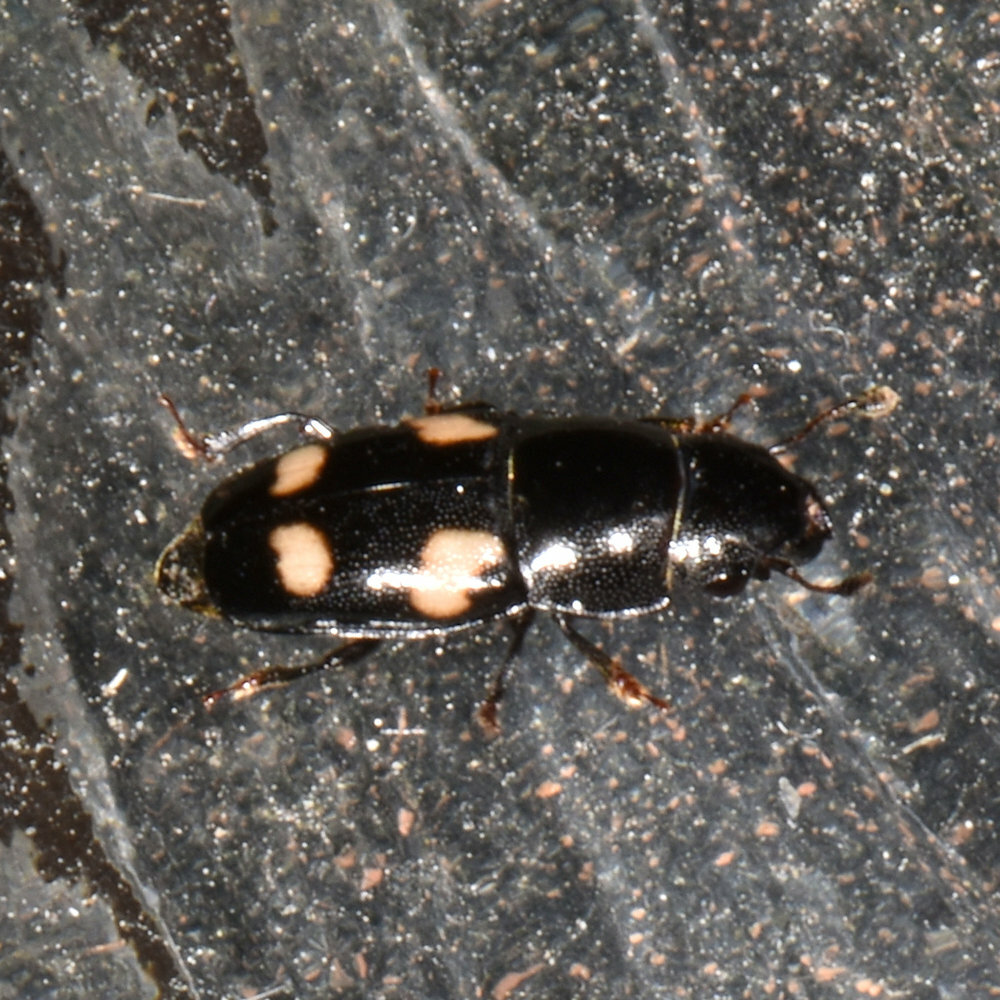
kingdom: Animalia
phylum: Arthropoda
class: Insecta
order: Coleoptera
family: Nitidulidae
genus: Glischrochilus
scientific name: Glischrochilus quadrisignatus
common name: Picnic beetle
